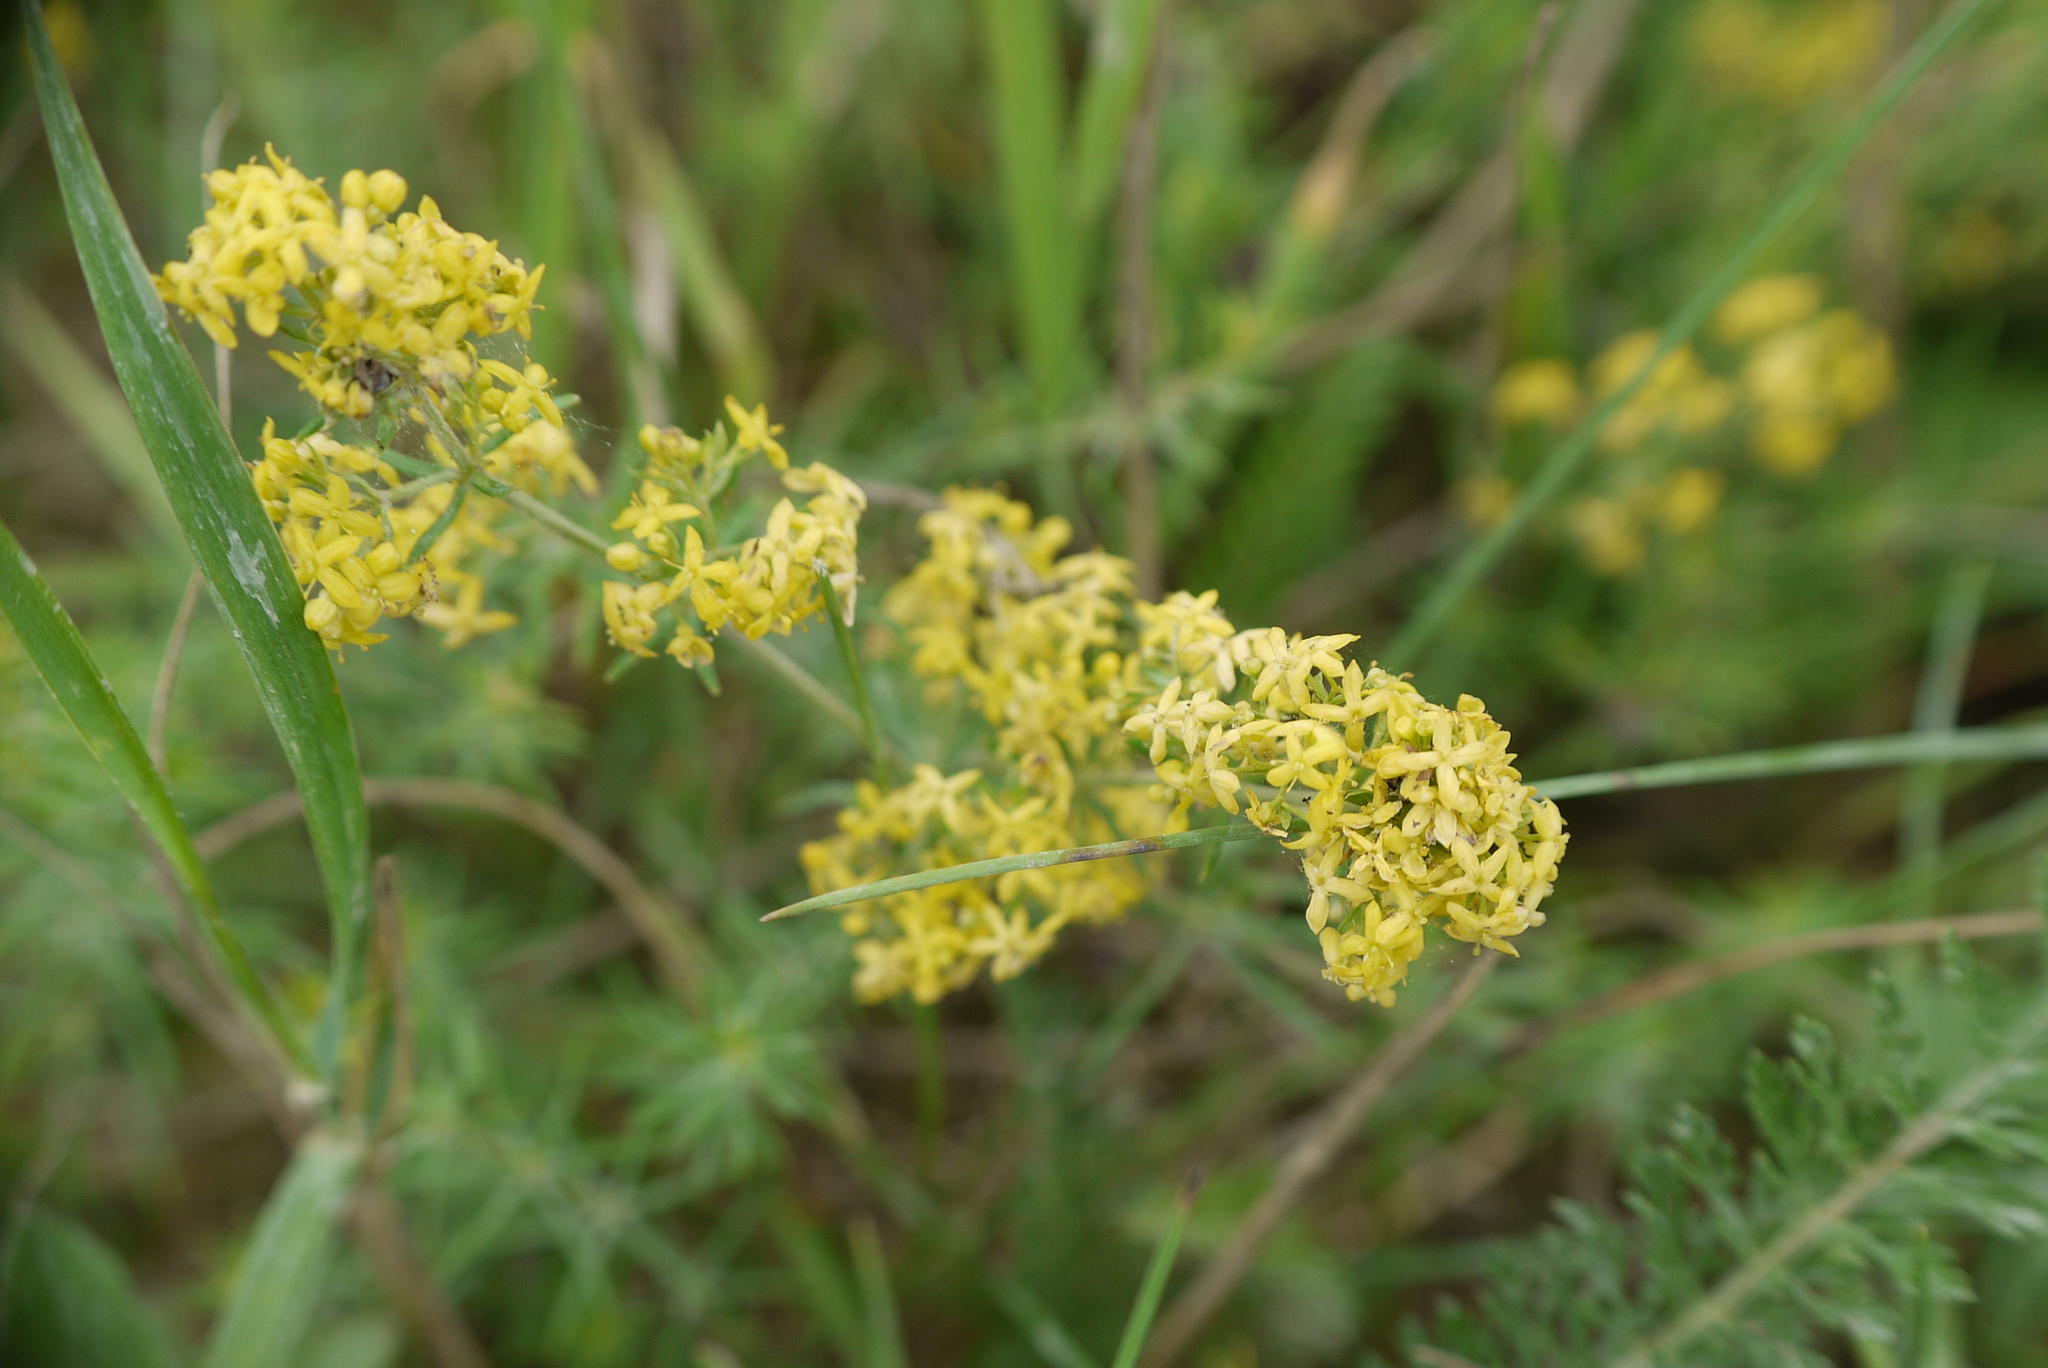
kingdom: Plantae
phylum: Tracheophyta
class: Magnoliopsida
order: Gentianales
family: Rubiaceae
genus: Galium
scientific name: Galium verum
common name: Lady's bedstraw
